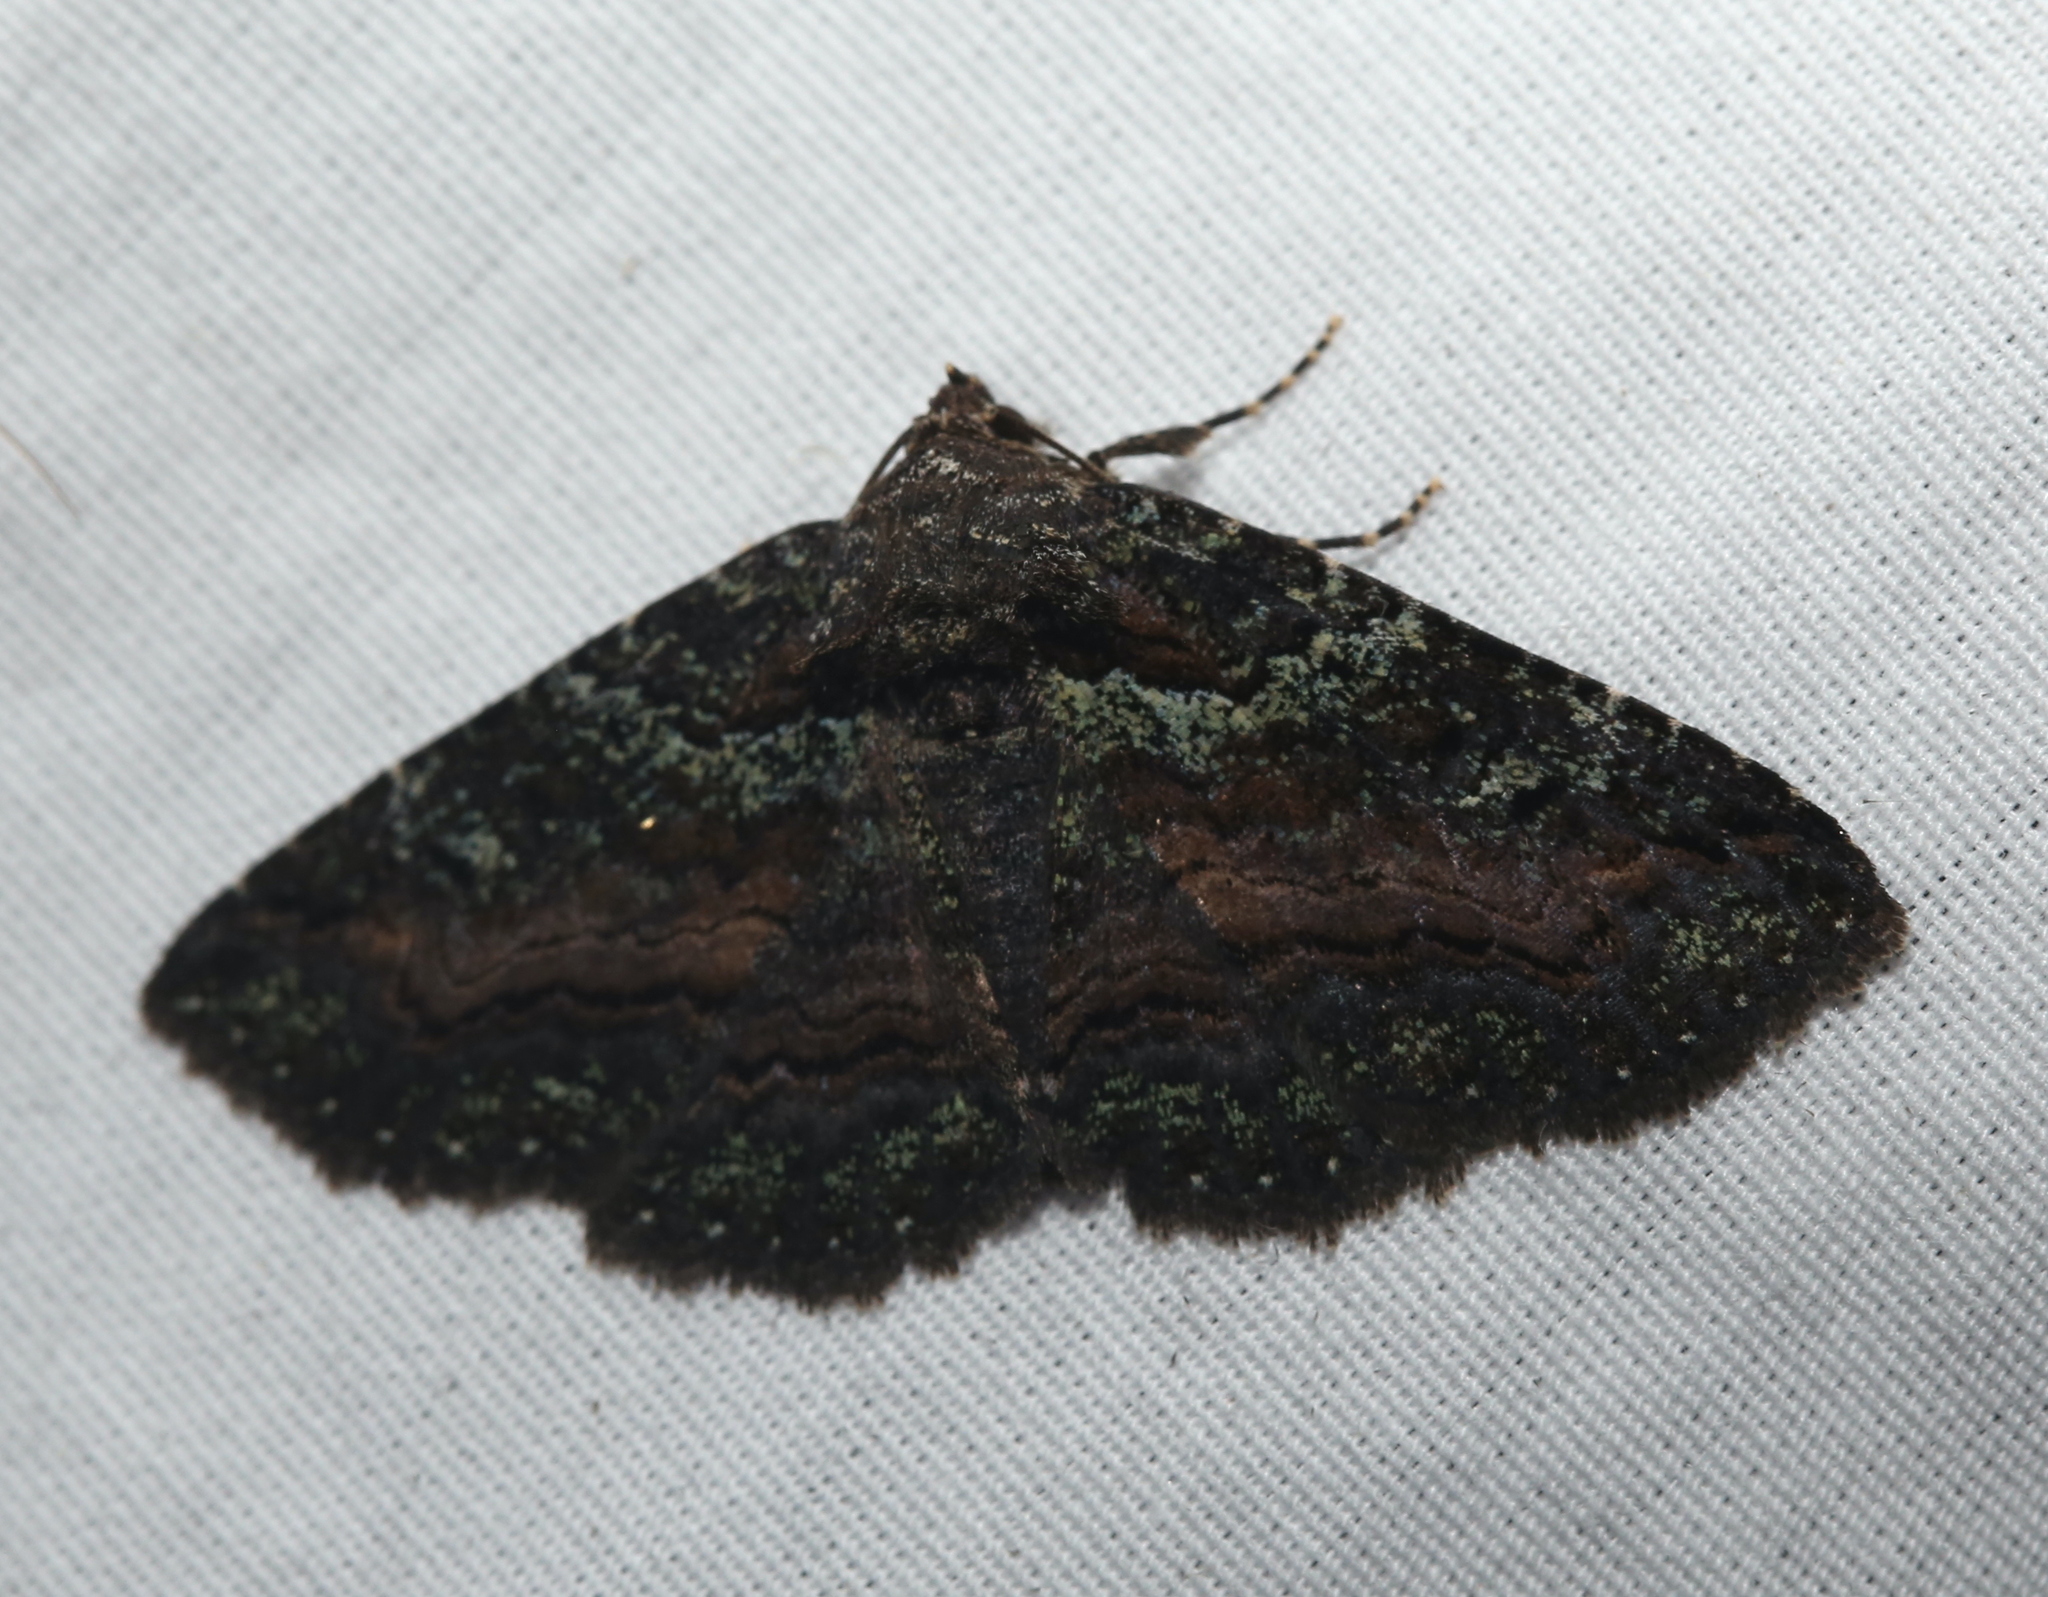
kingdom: Animalia
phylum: Arthropoda
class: Insecta
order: Lepidoptera
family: Erebidae
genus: Zale
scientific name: Zale aeruginosa
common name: Green-dusted zale moth
